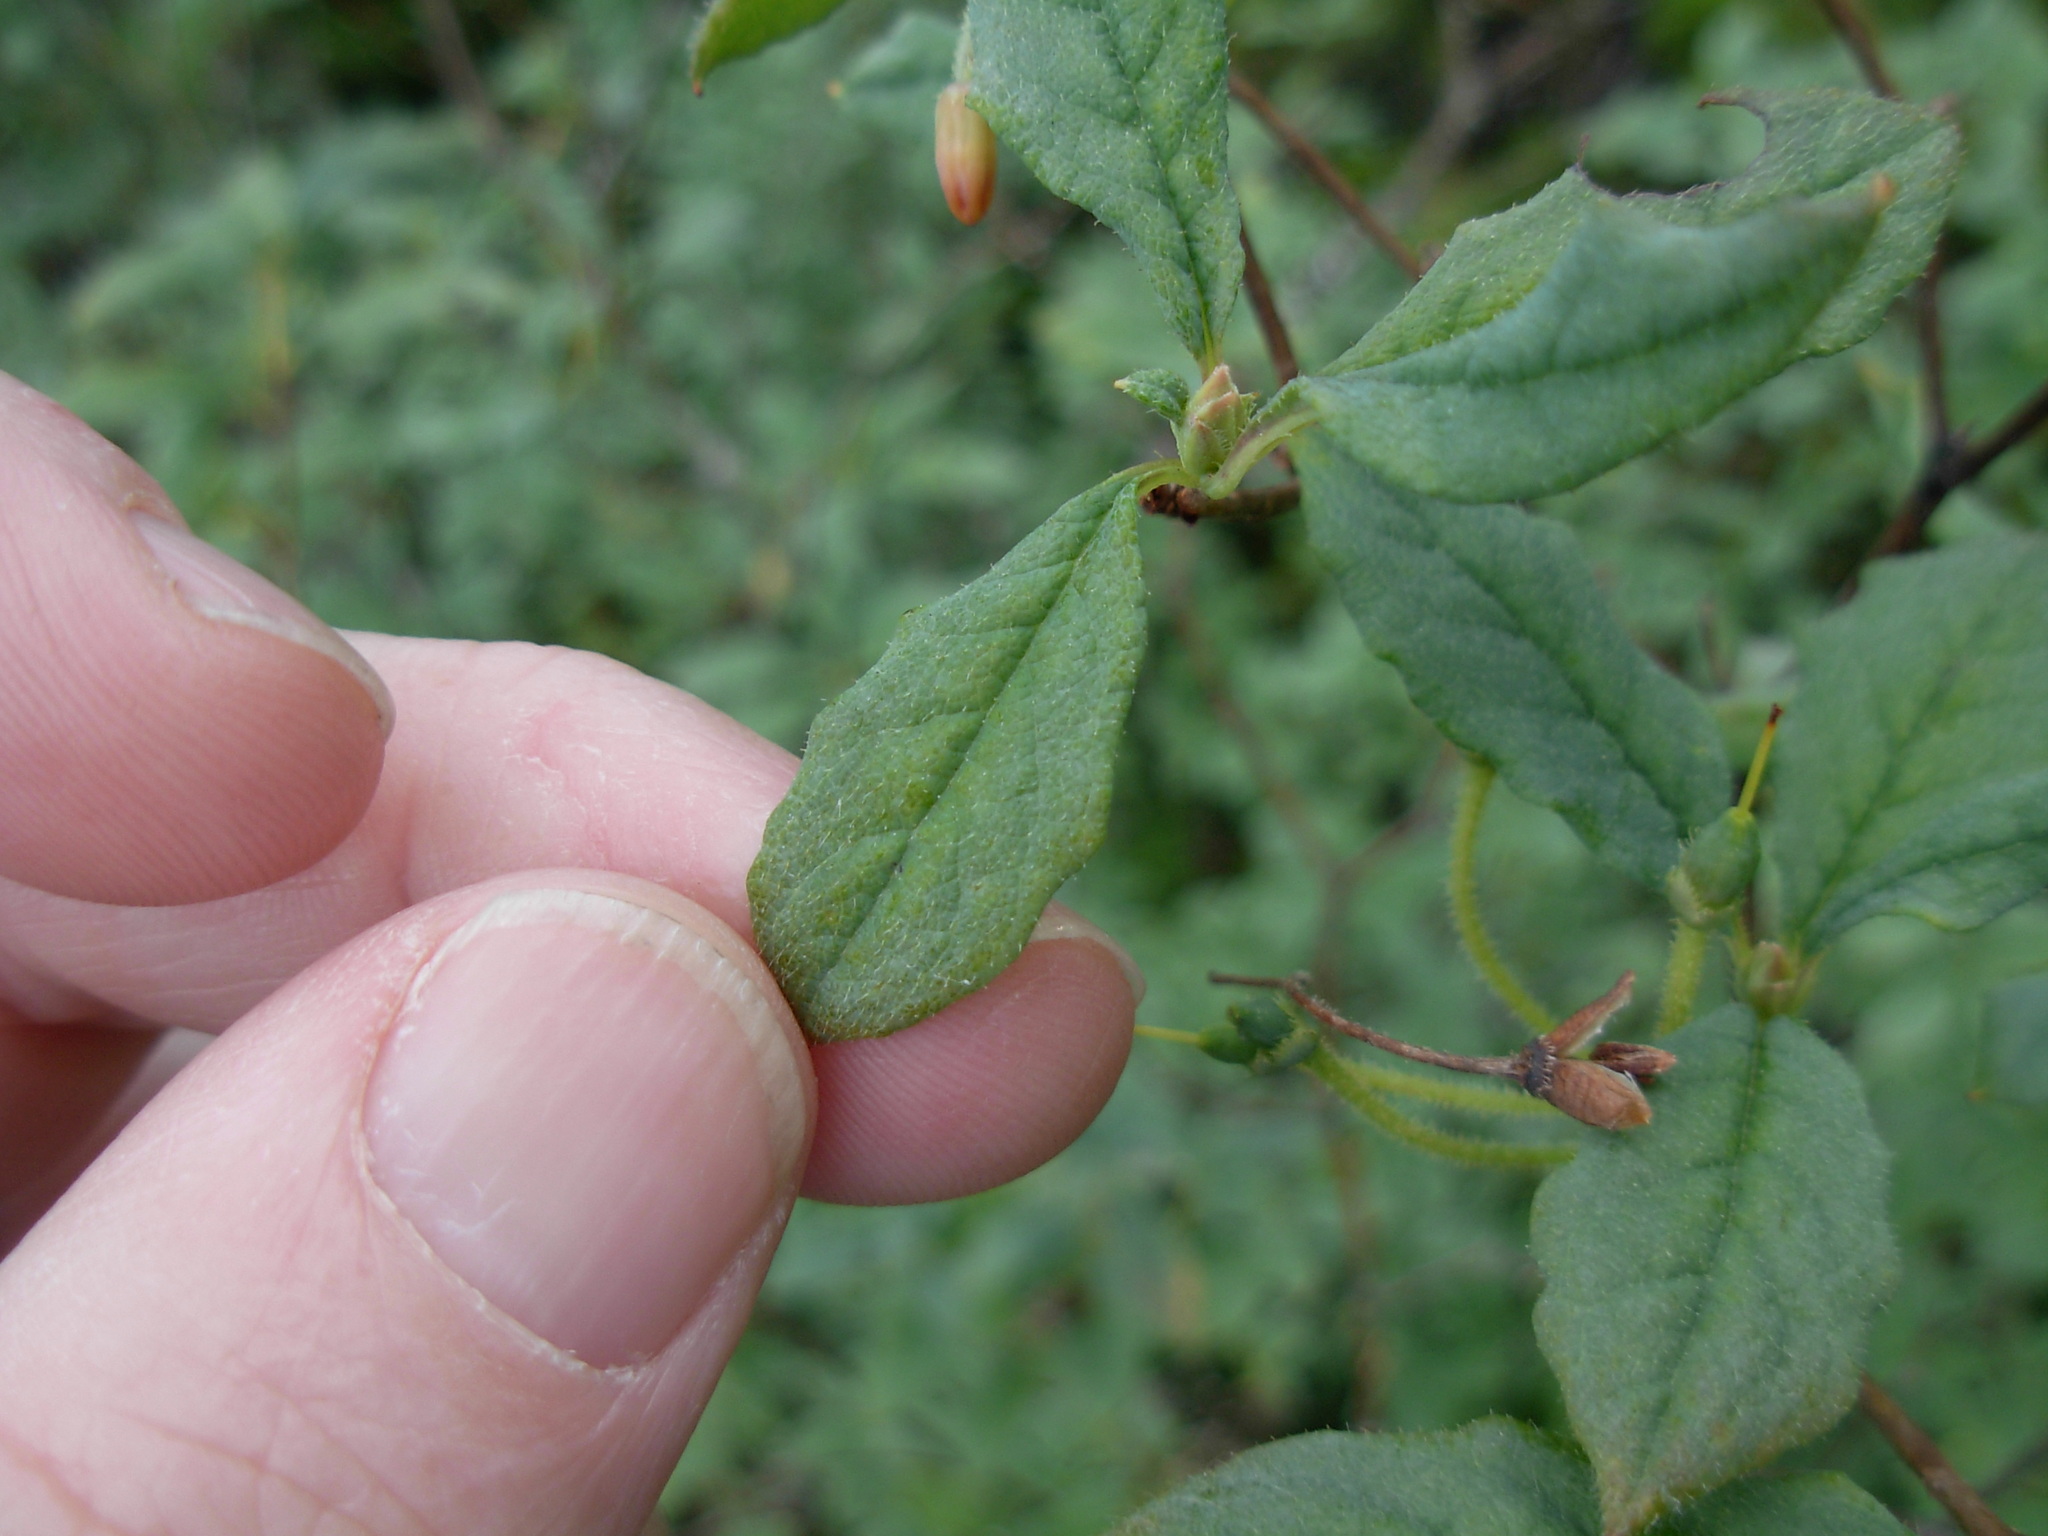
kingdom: Plantae
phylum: Tracheophyta
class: Magnoliopsida
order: Ericales
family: Ericaceae
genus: Rhododendron
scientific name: Rhododendron menziesii
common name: Pacific menziesia
